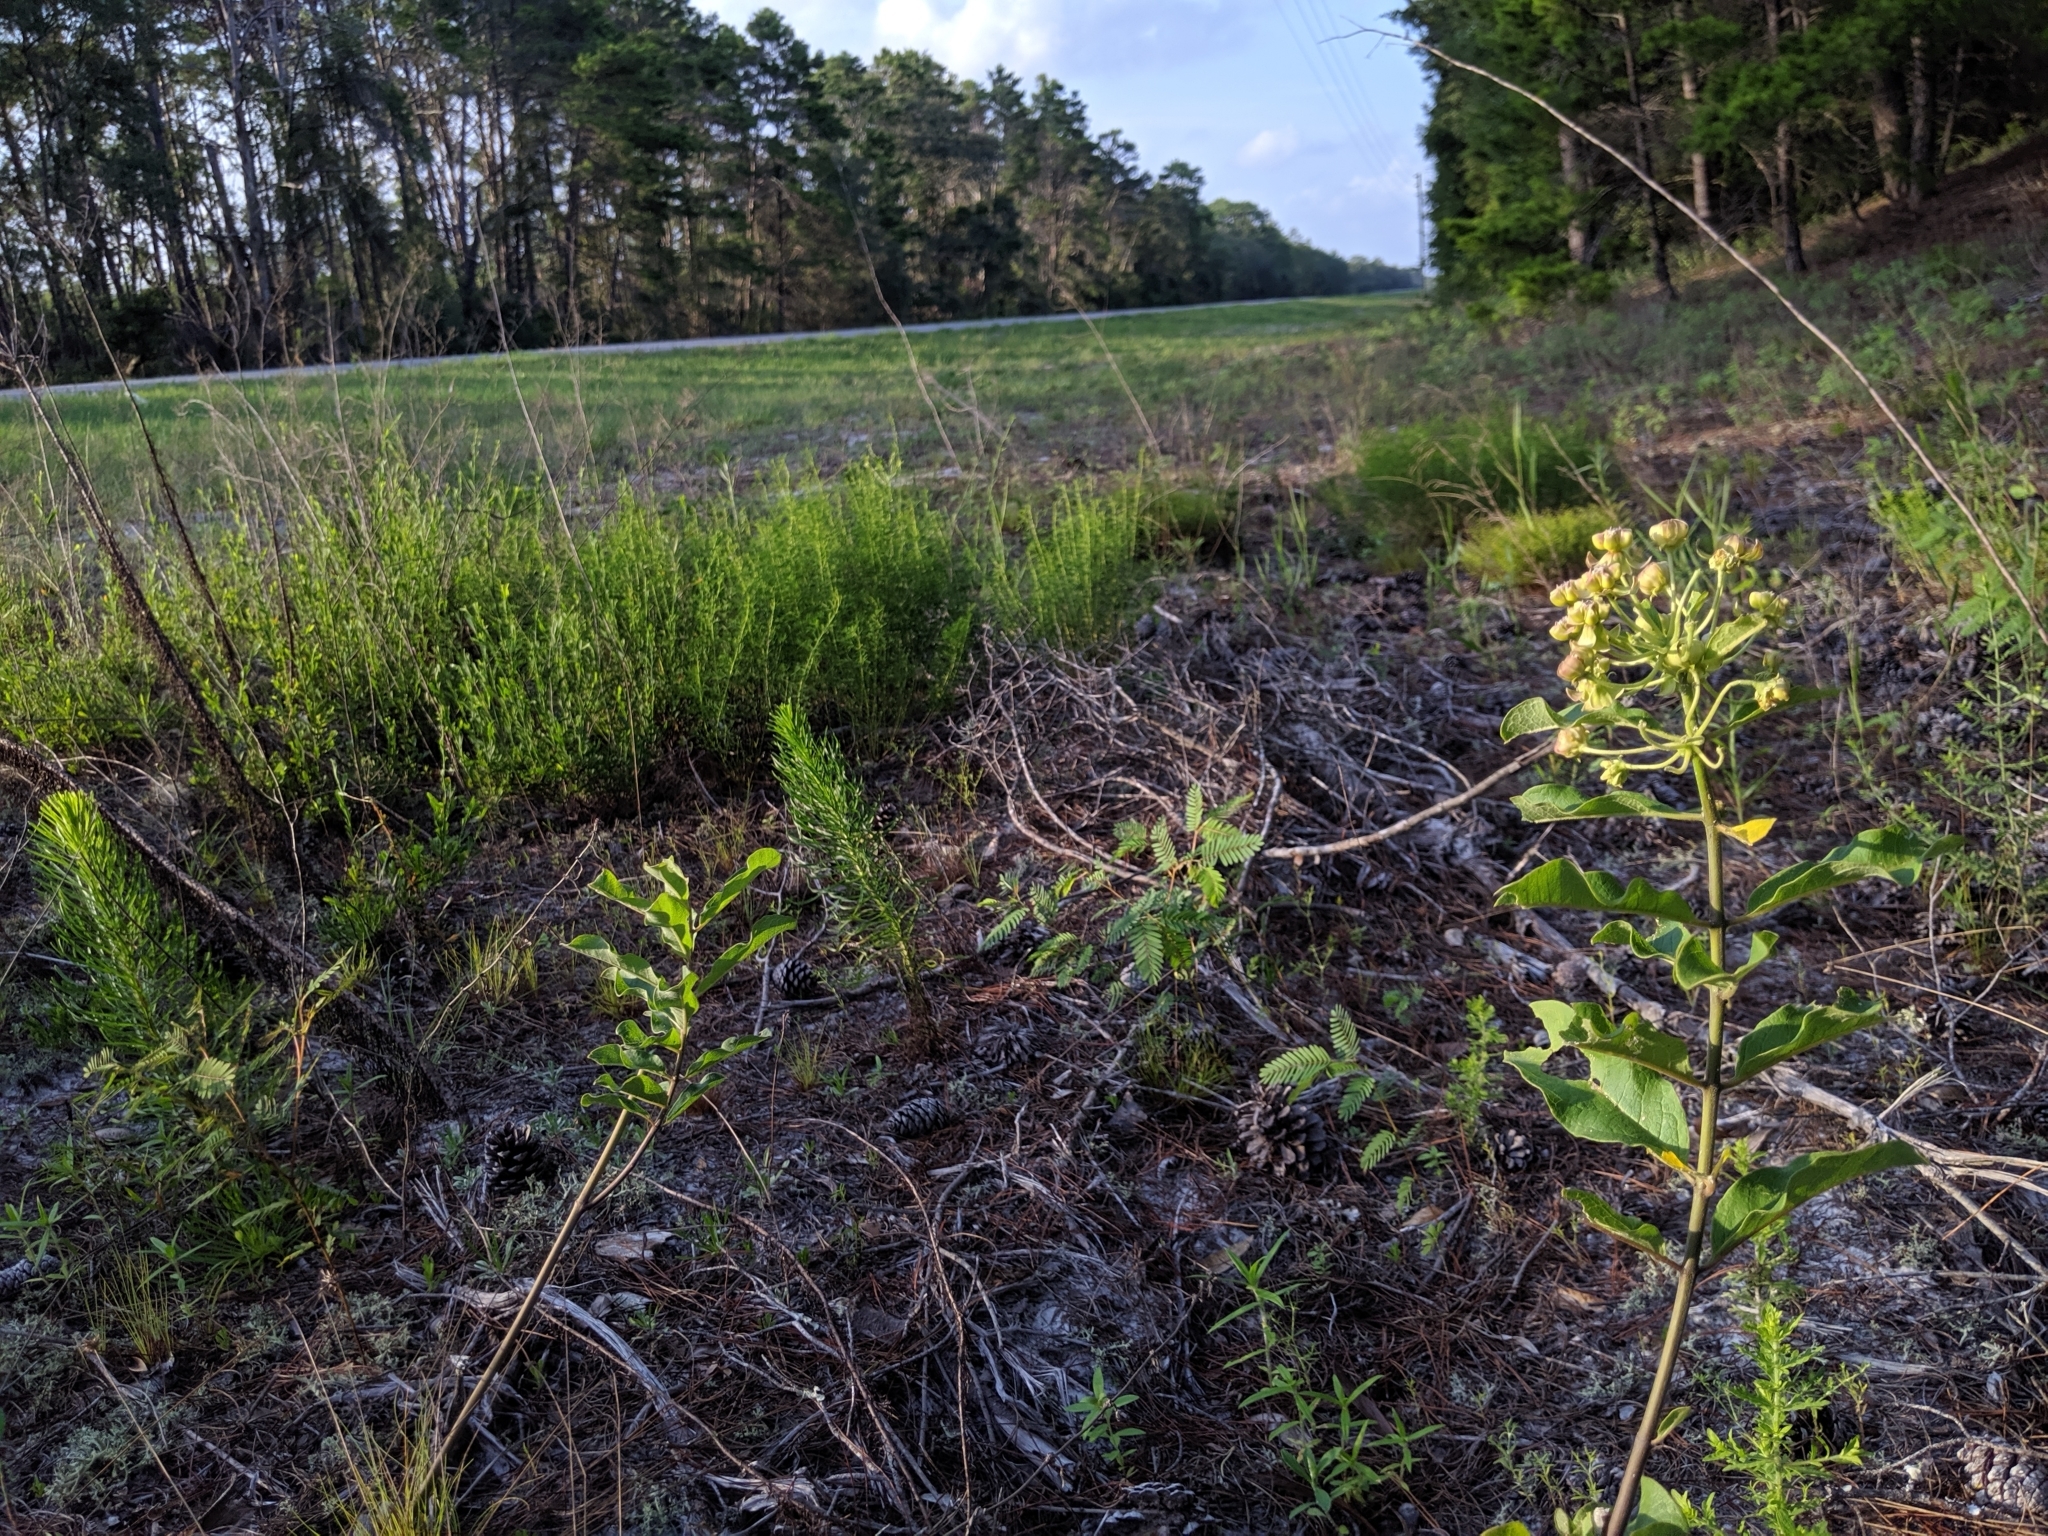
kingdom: Plantae
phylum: Tracheophyta
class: Magnoliopsida
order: Gentianales
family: Apocynaceae
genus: Asclepias
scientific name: Asclepias tomentosa
